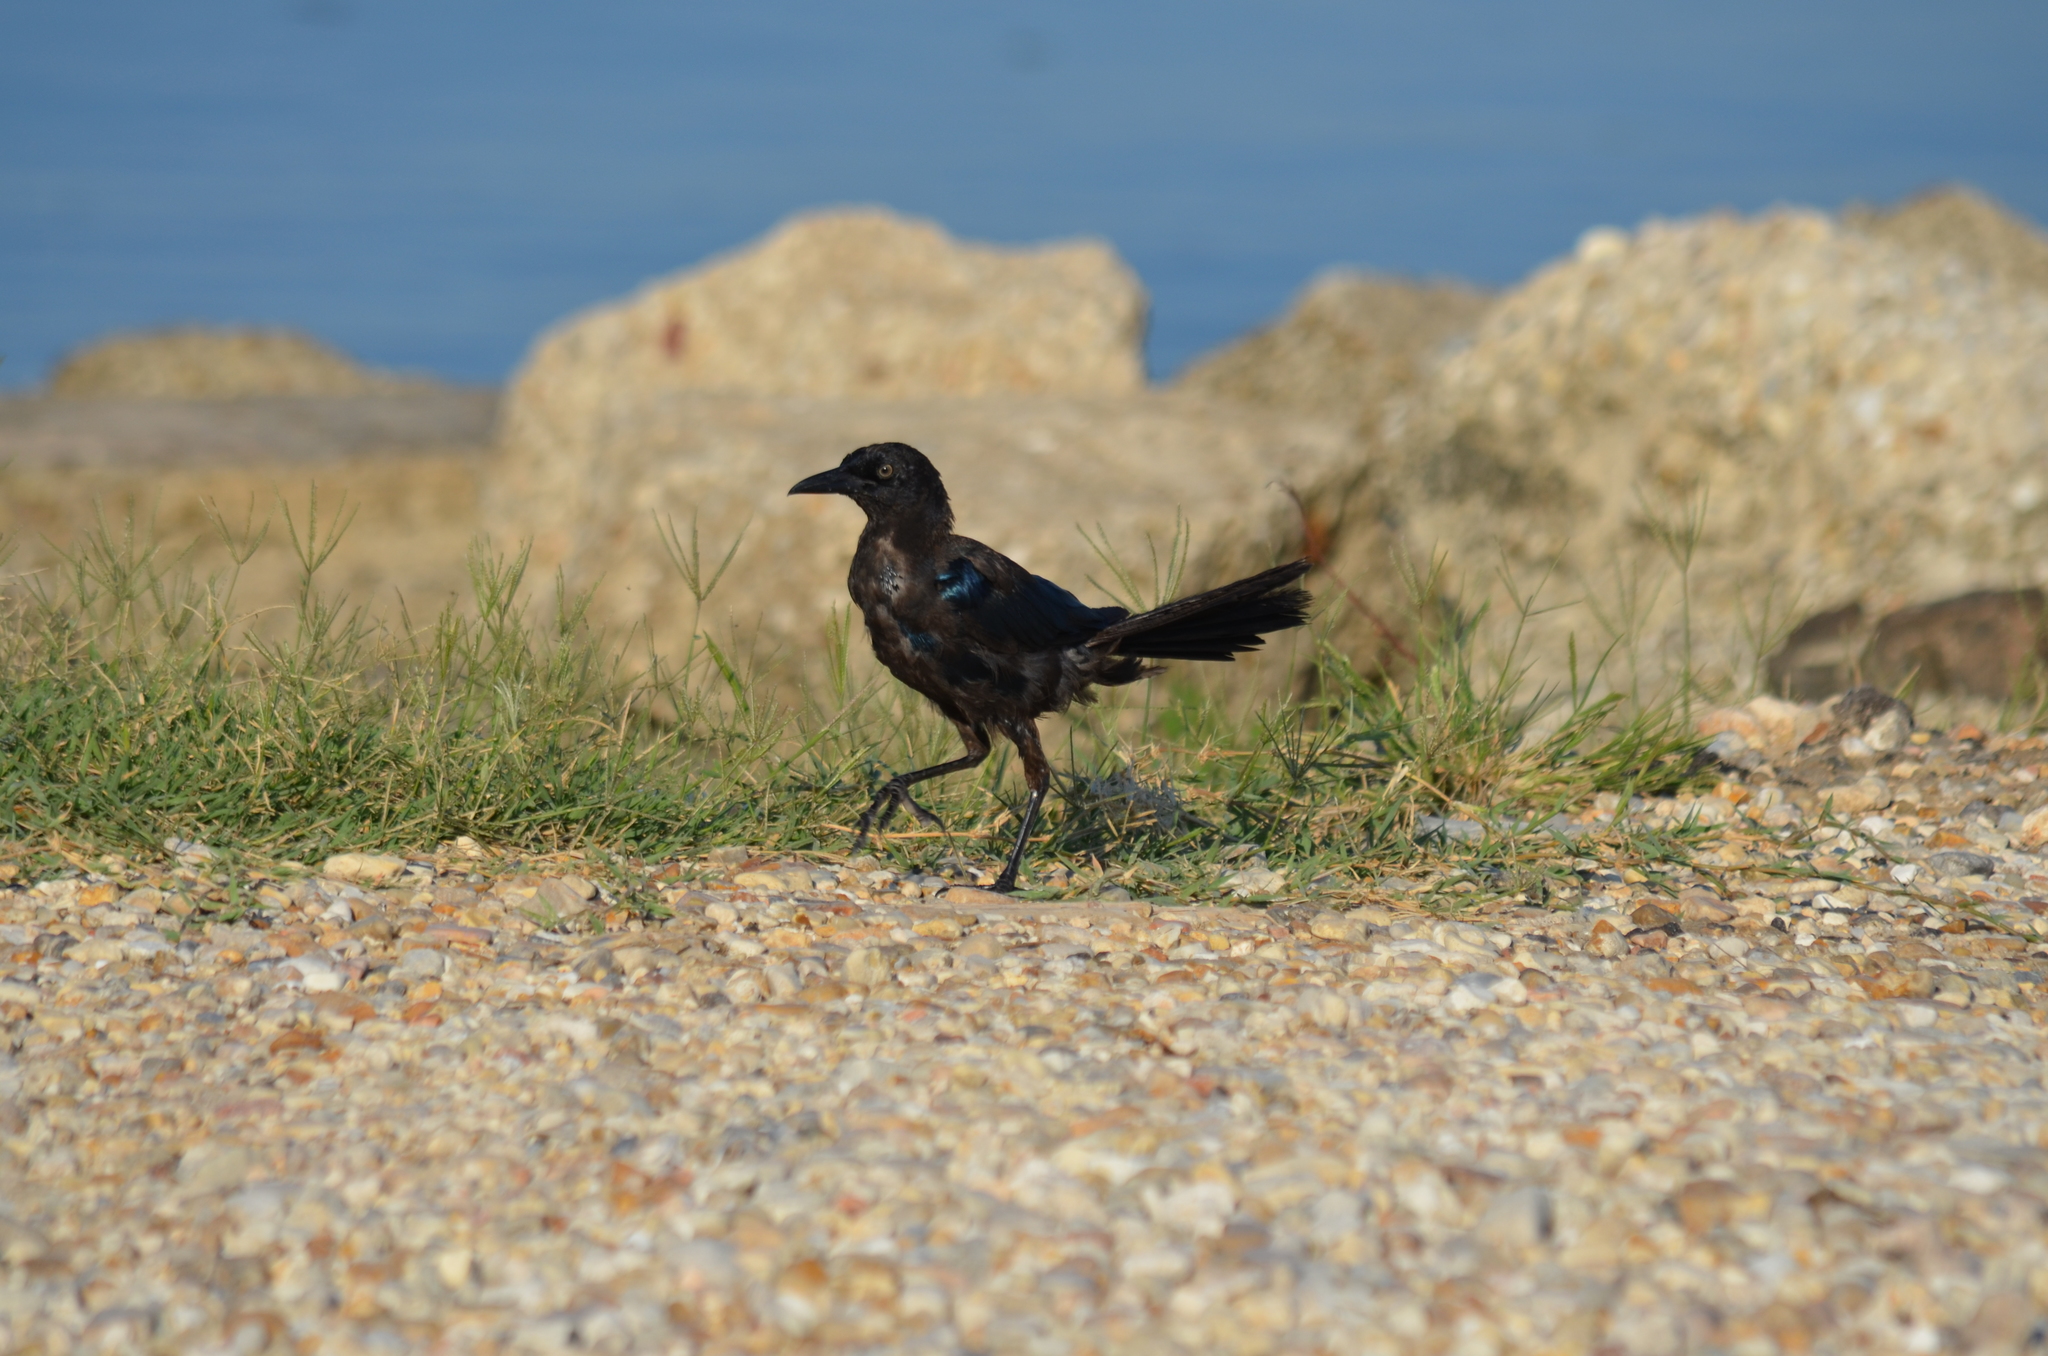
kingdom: Animalia
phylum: Chordata
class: Aves
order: Passeriformes
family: Icteridae
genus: Quiscalus
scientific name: Quiscalus major
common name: Boat-tailed grackle
